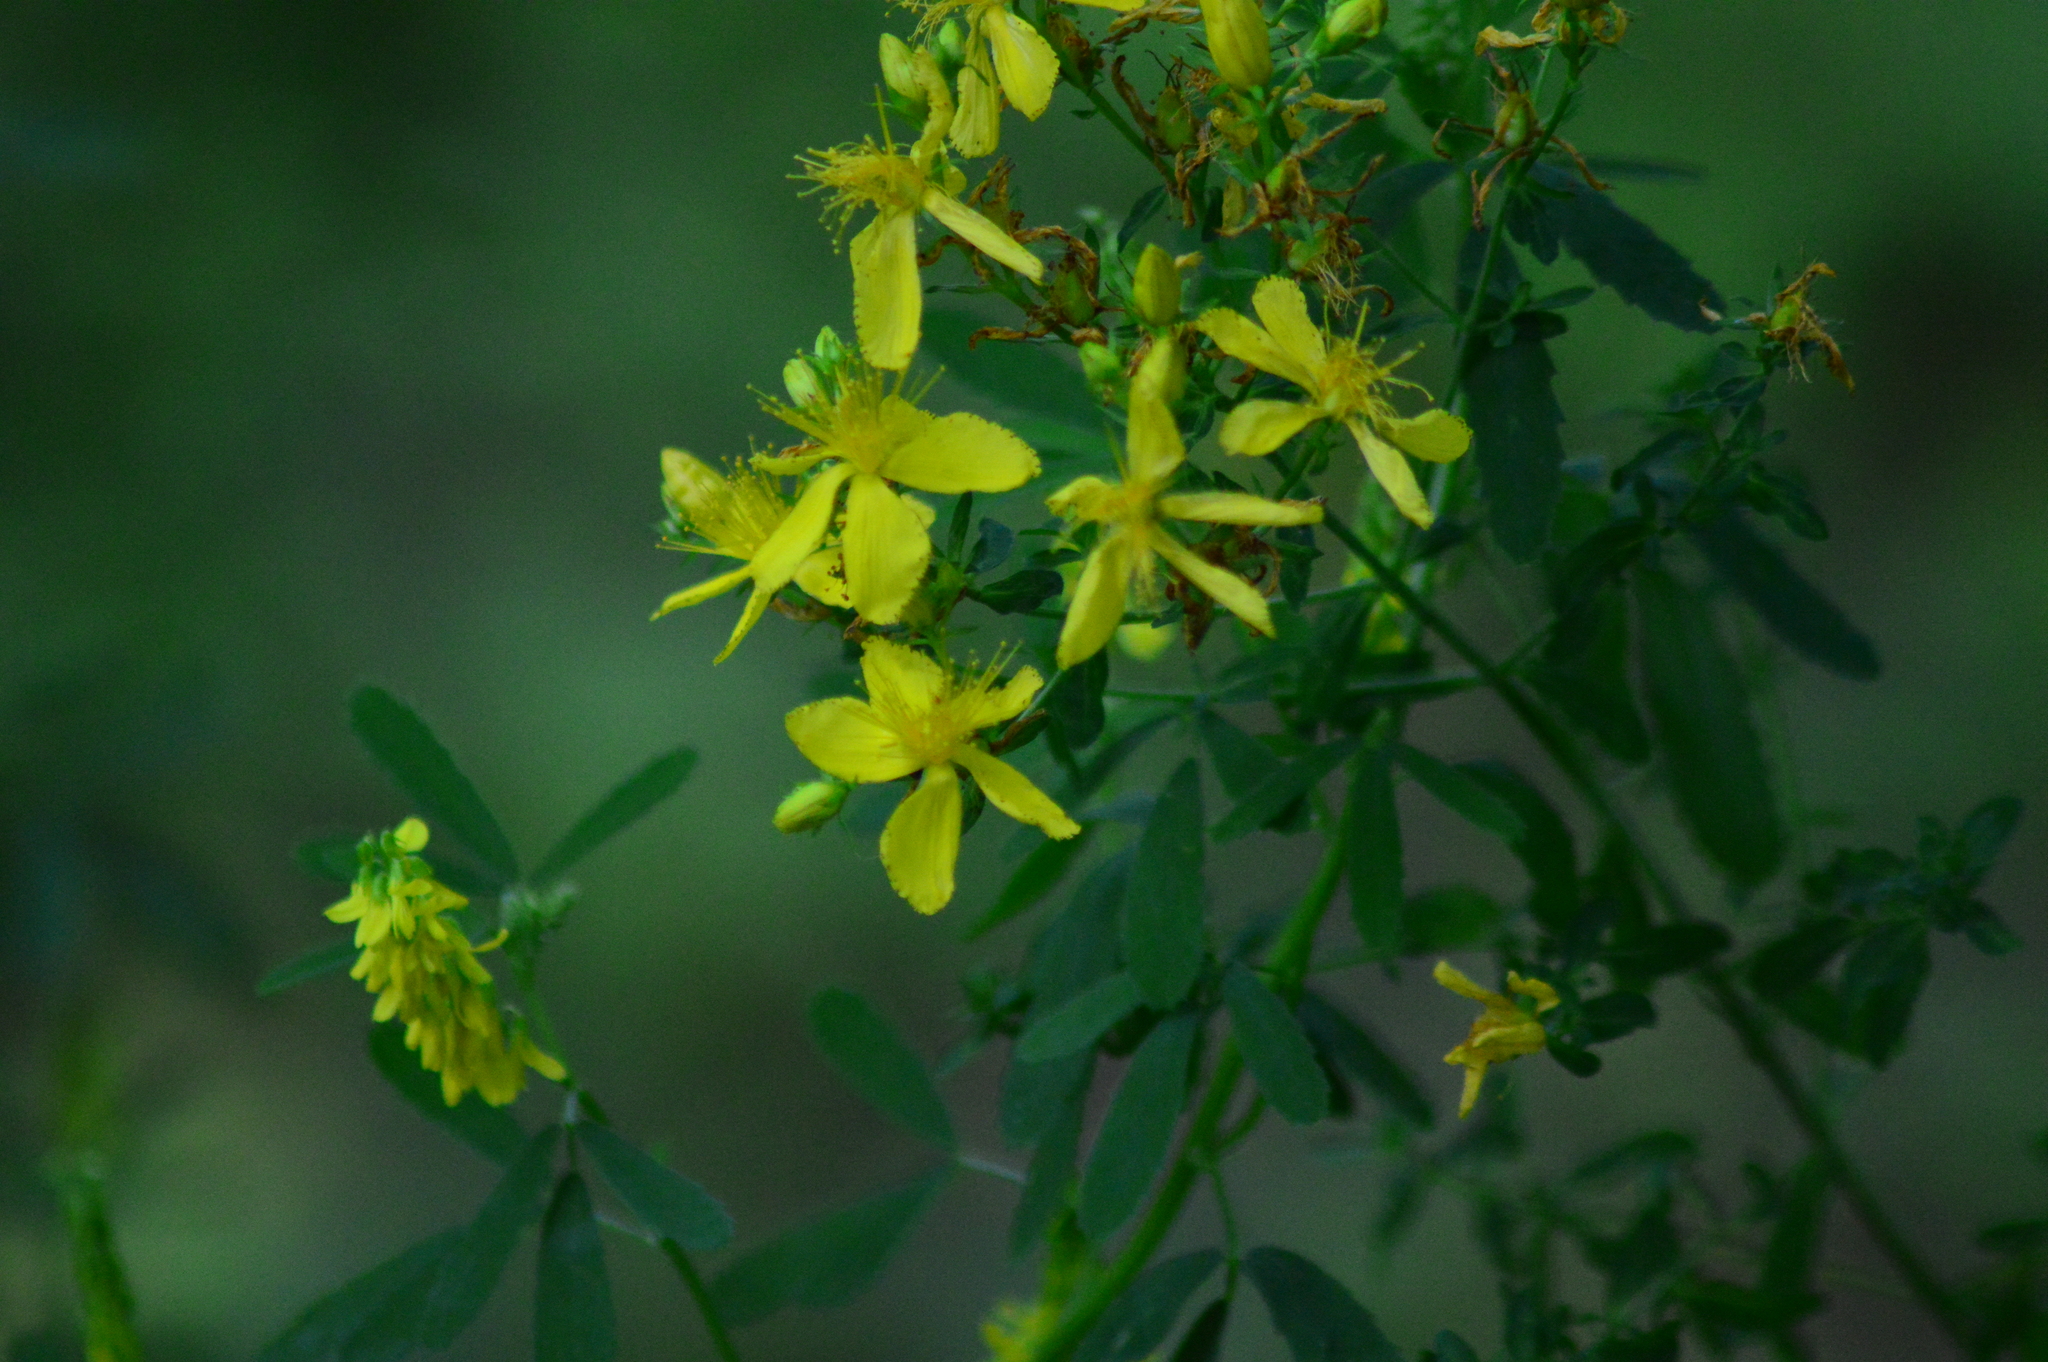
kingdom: Plantae
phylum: Tracheophyta
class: Magnoliopsida
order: Malpighiales
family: Hypericaceae
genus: Hypericum
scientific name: Hypericum perforatum
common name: Common st. johnswort
